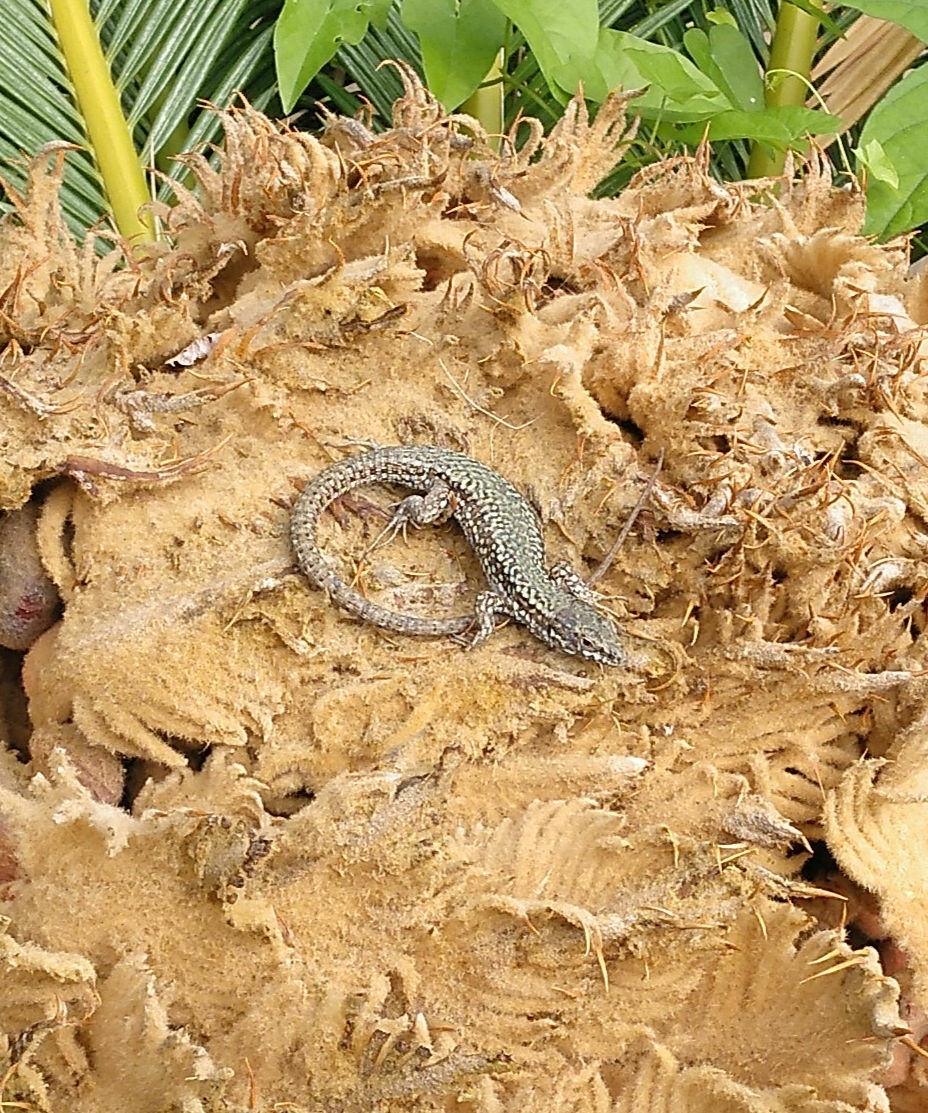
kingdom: Animalia
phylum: Chordata
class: Squamata
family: Lacertidae
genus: Podarcis
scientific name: Podarcis muralis
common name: Common wall lizard
